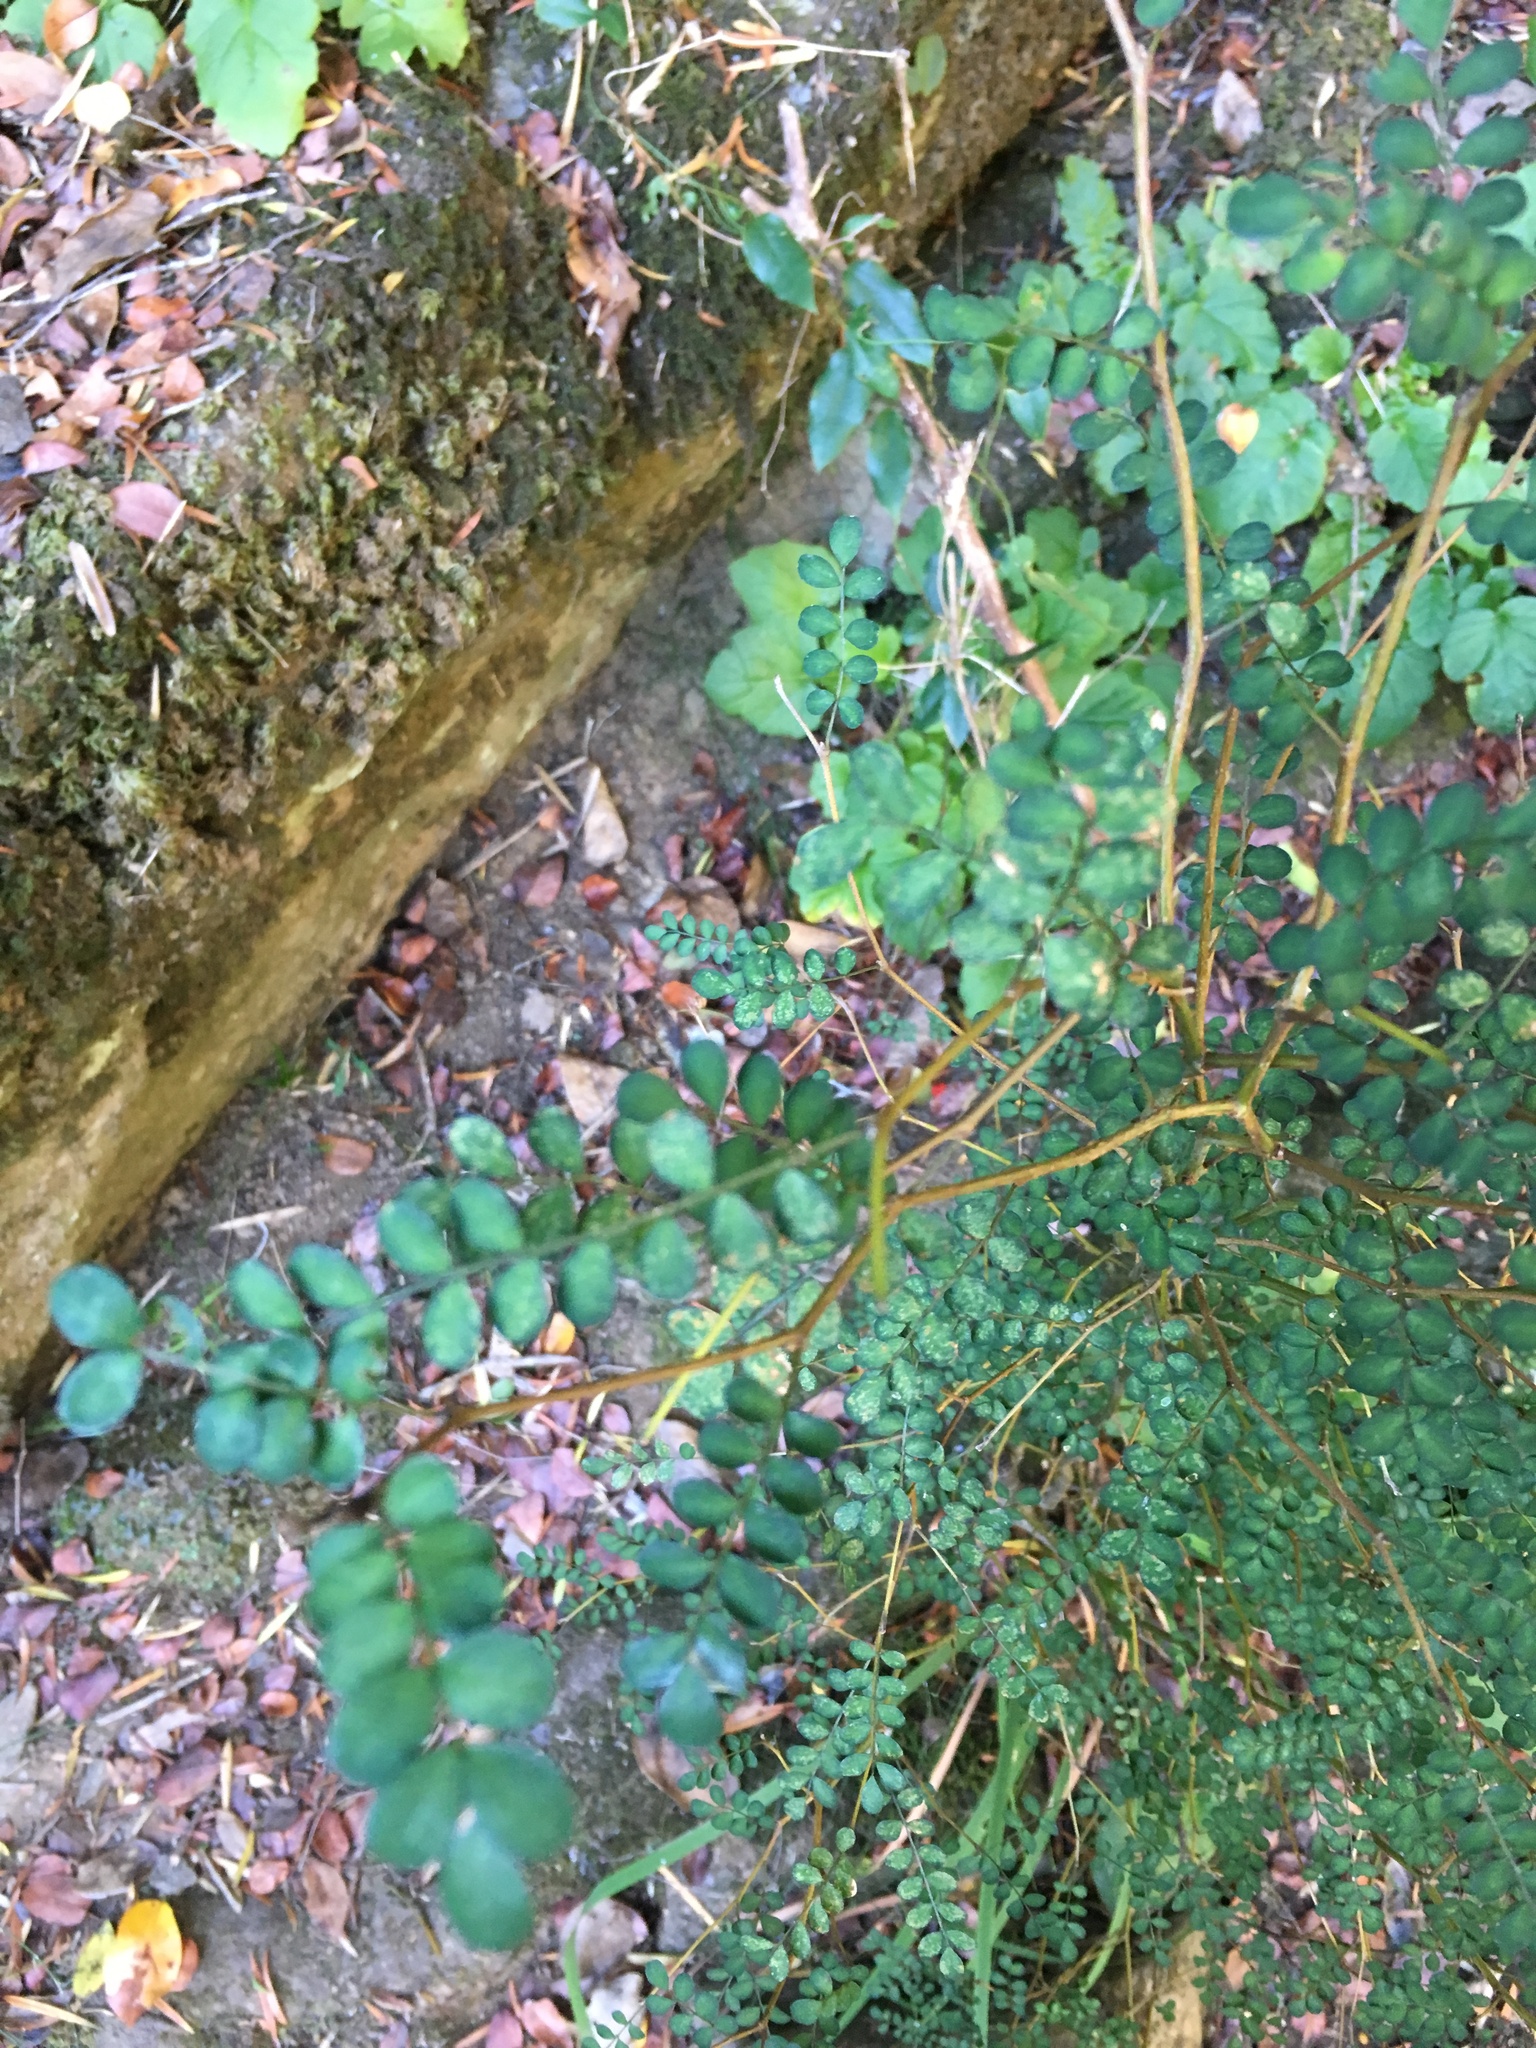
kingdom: Plantae
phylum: Tracheophyta
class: Magnoliopsida
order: Fabales
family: Fabaceae
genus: Sophora
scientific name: Sophora cassioides
